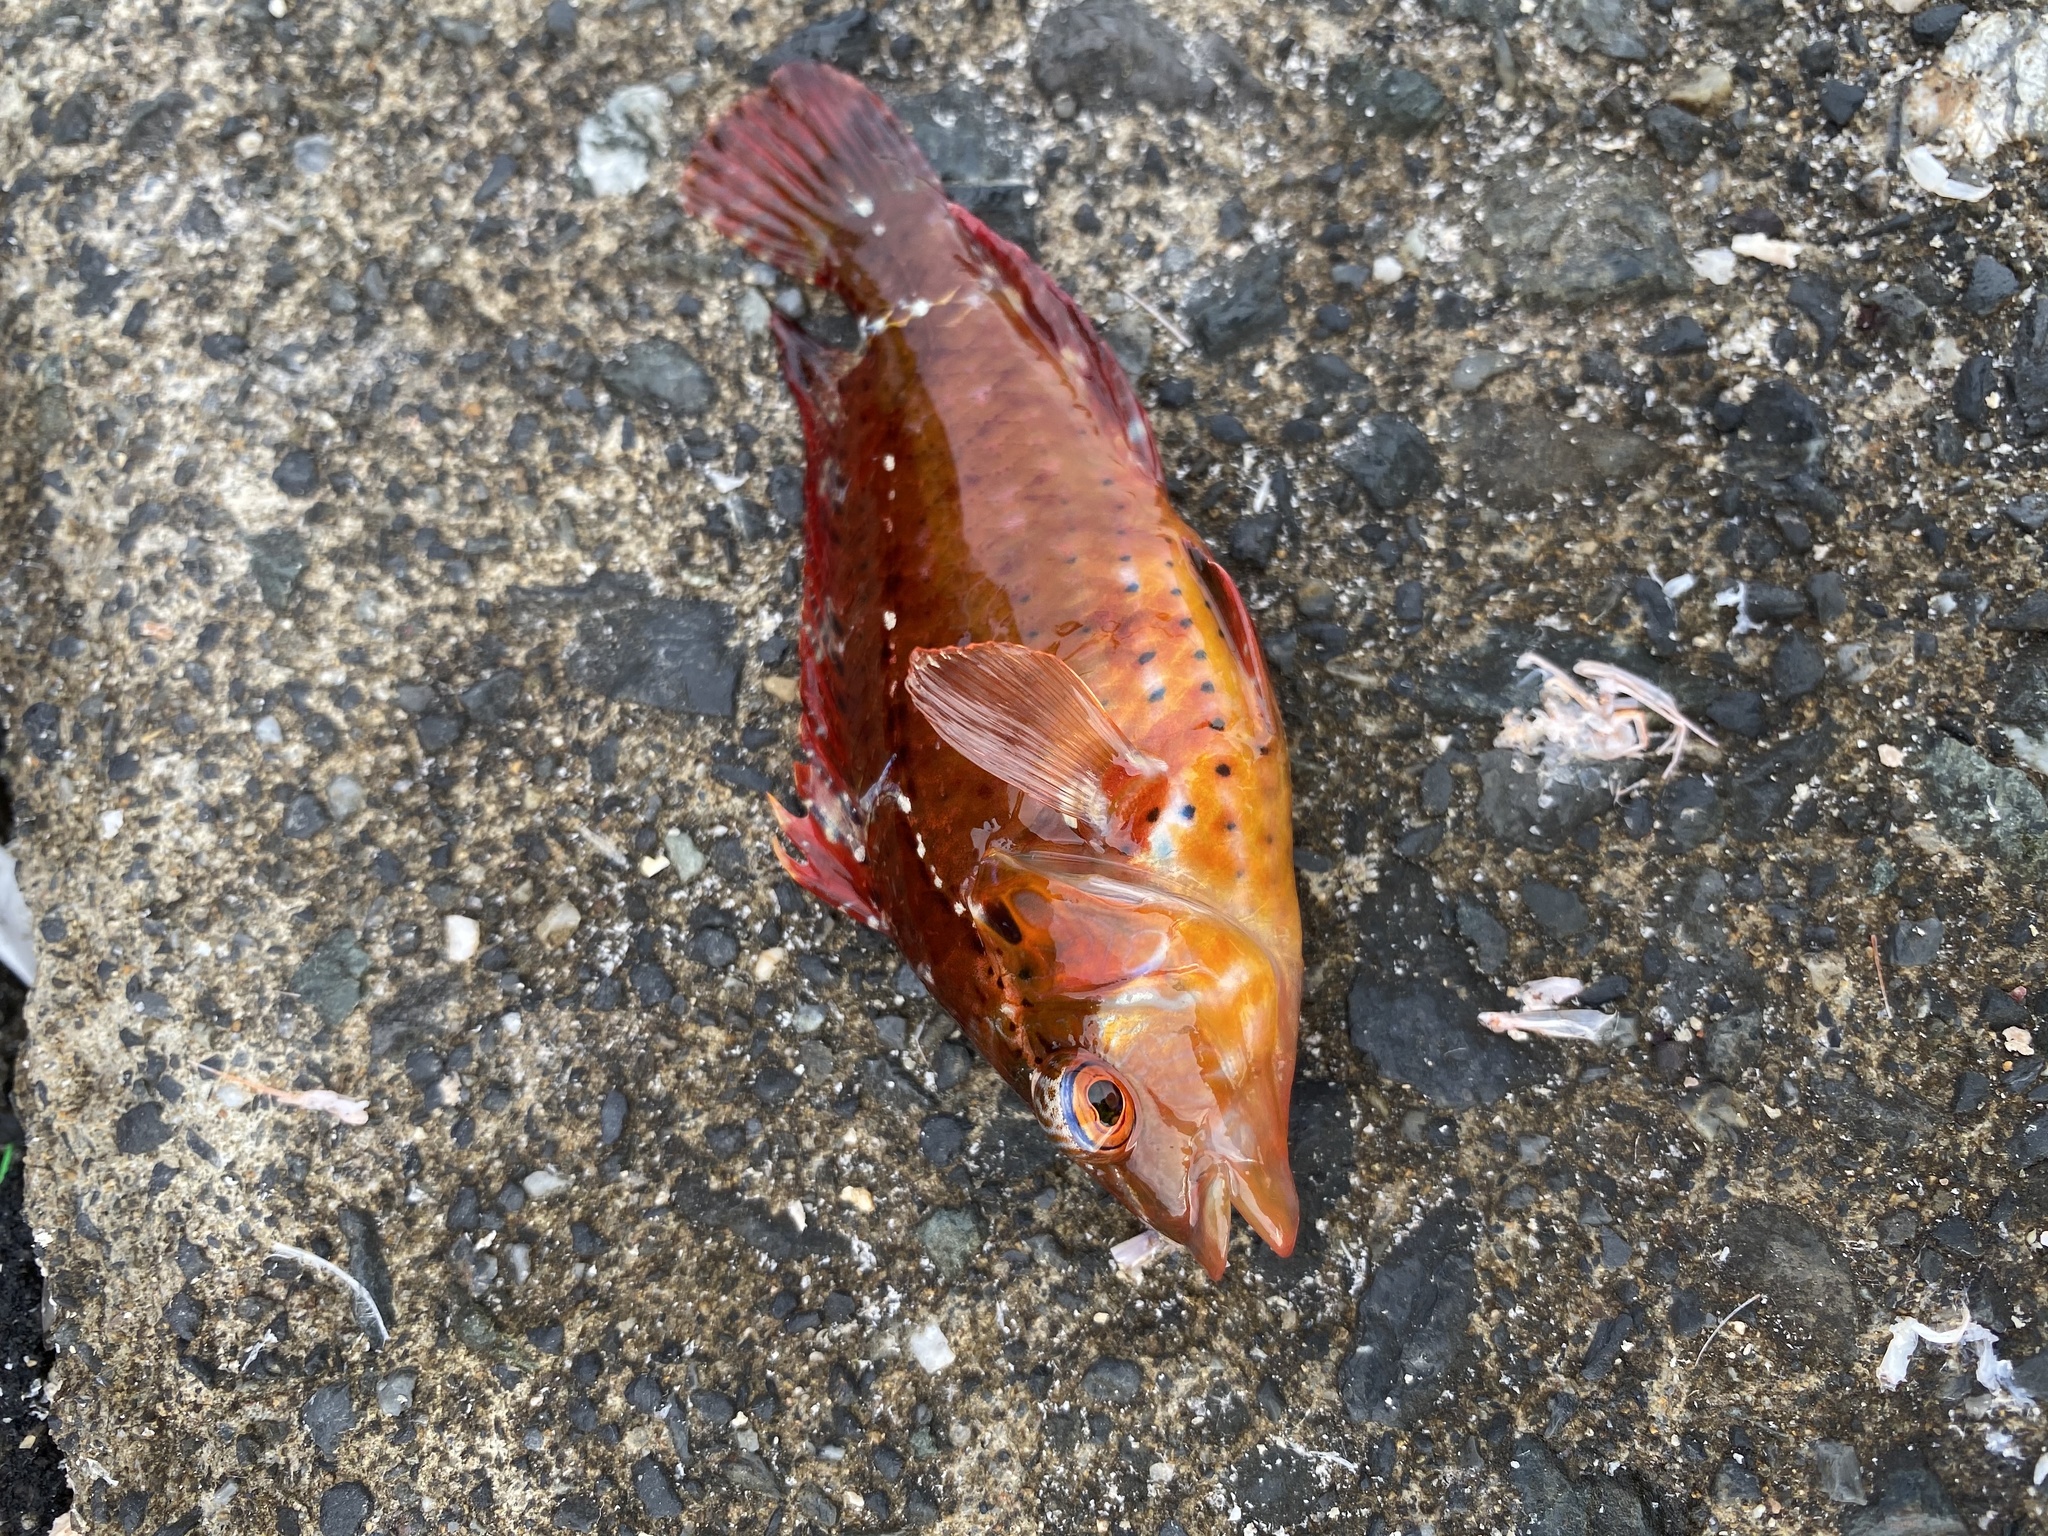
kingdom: Animalia
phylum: Chordata
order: Perciformes
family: Labridae
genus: Pteragogus
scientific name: Pteragogus aurigarius
